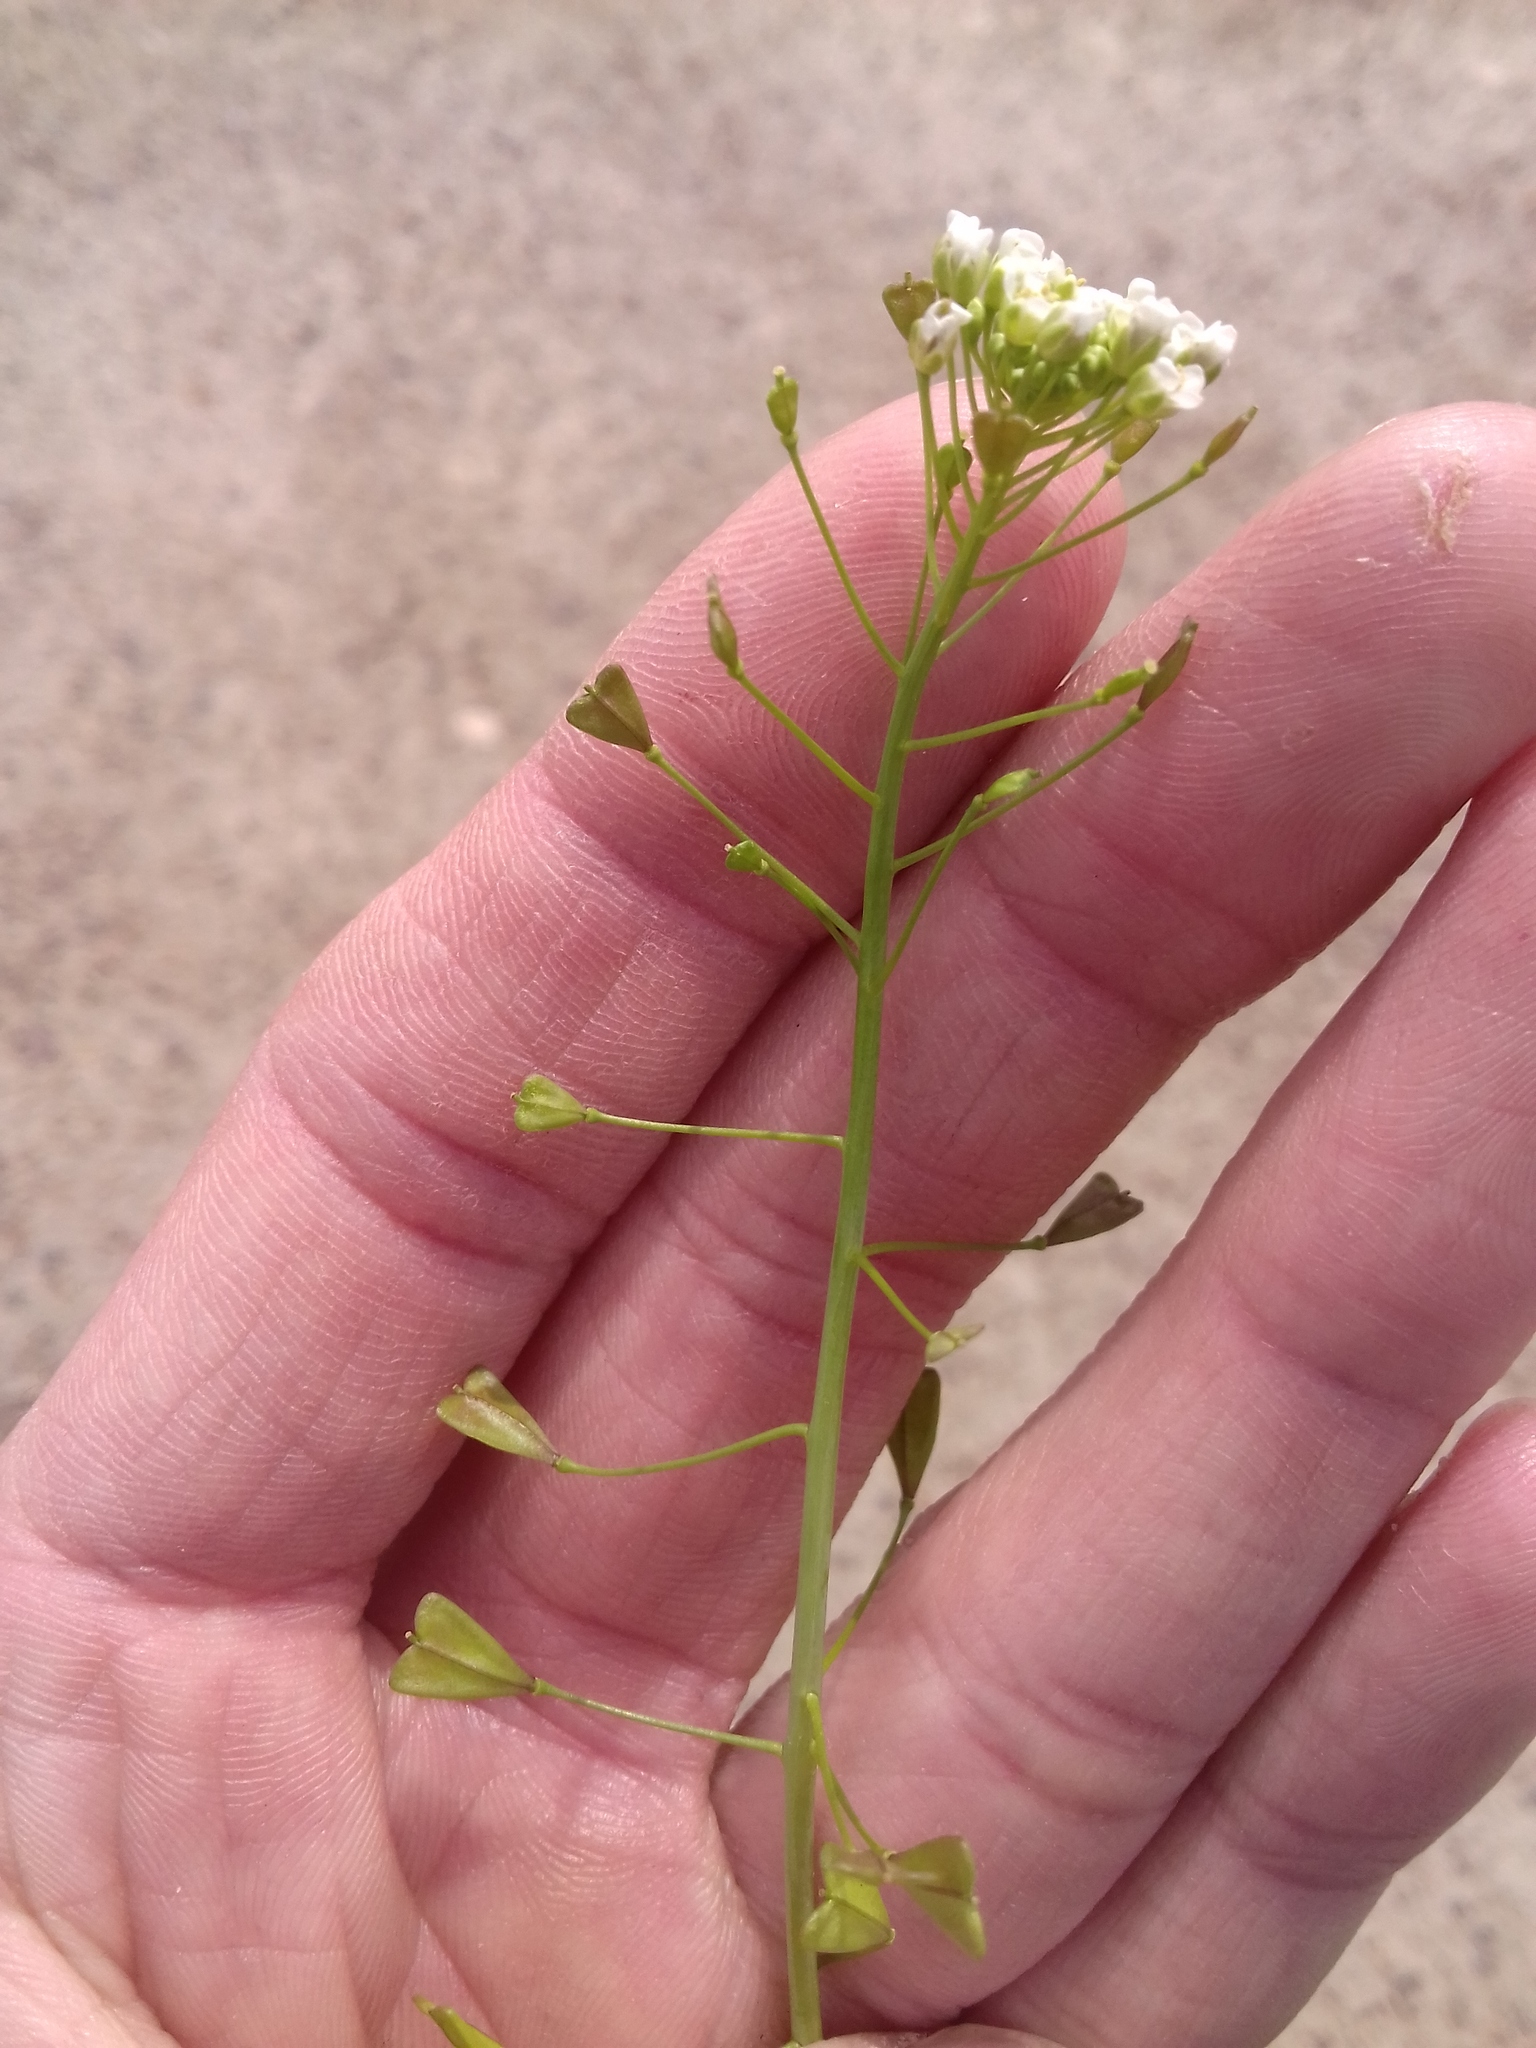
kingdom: Plantae
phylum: Tracheophyta
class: Magnoliopsida
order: Brassicales
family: Brassicaceae
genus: Capsella
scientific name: Capsella bursa-pastoris
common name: Shepherd's purse
